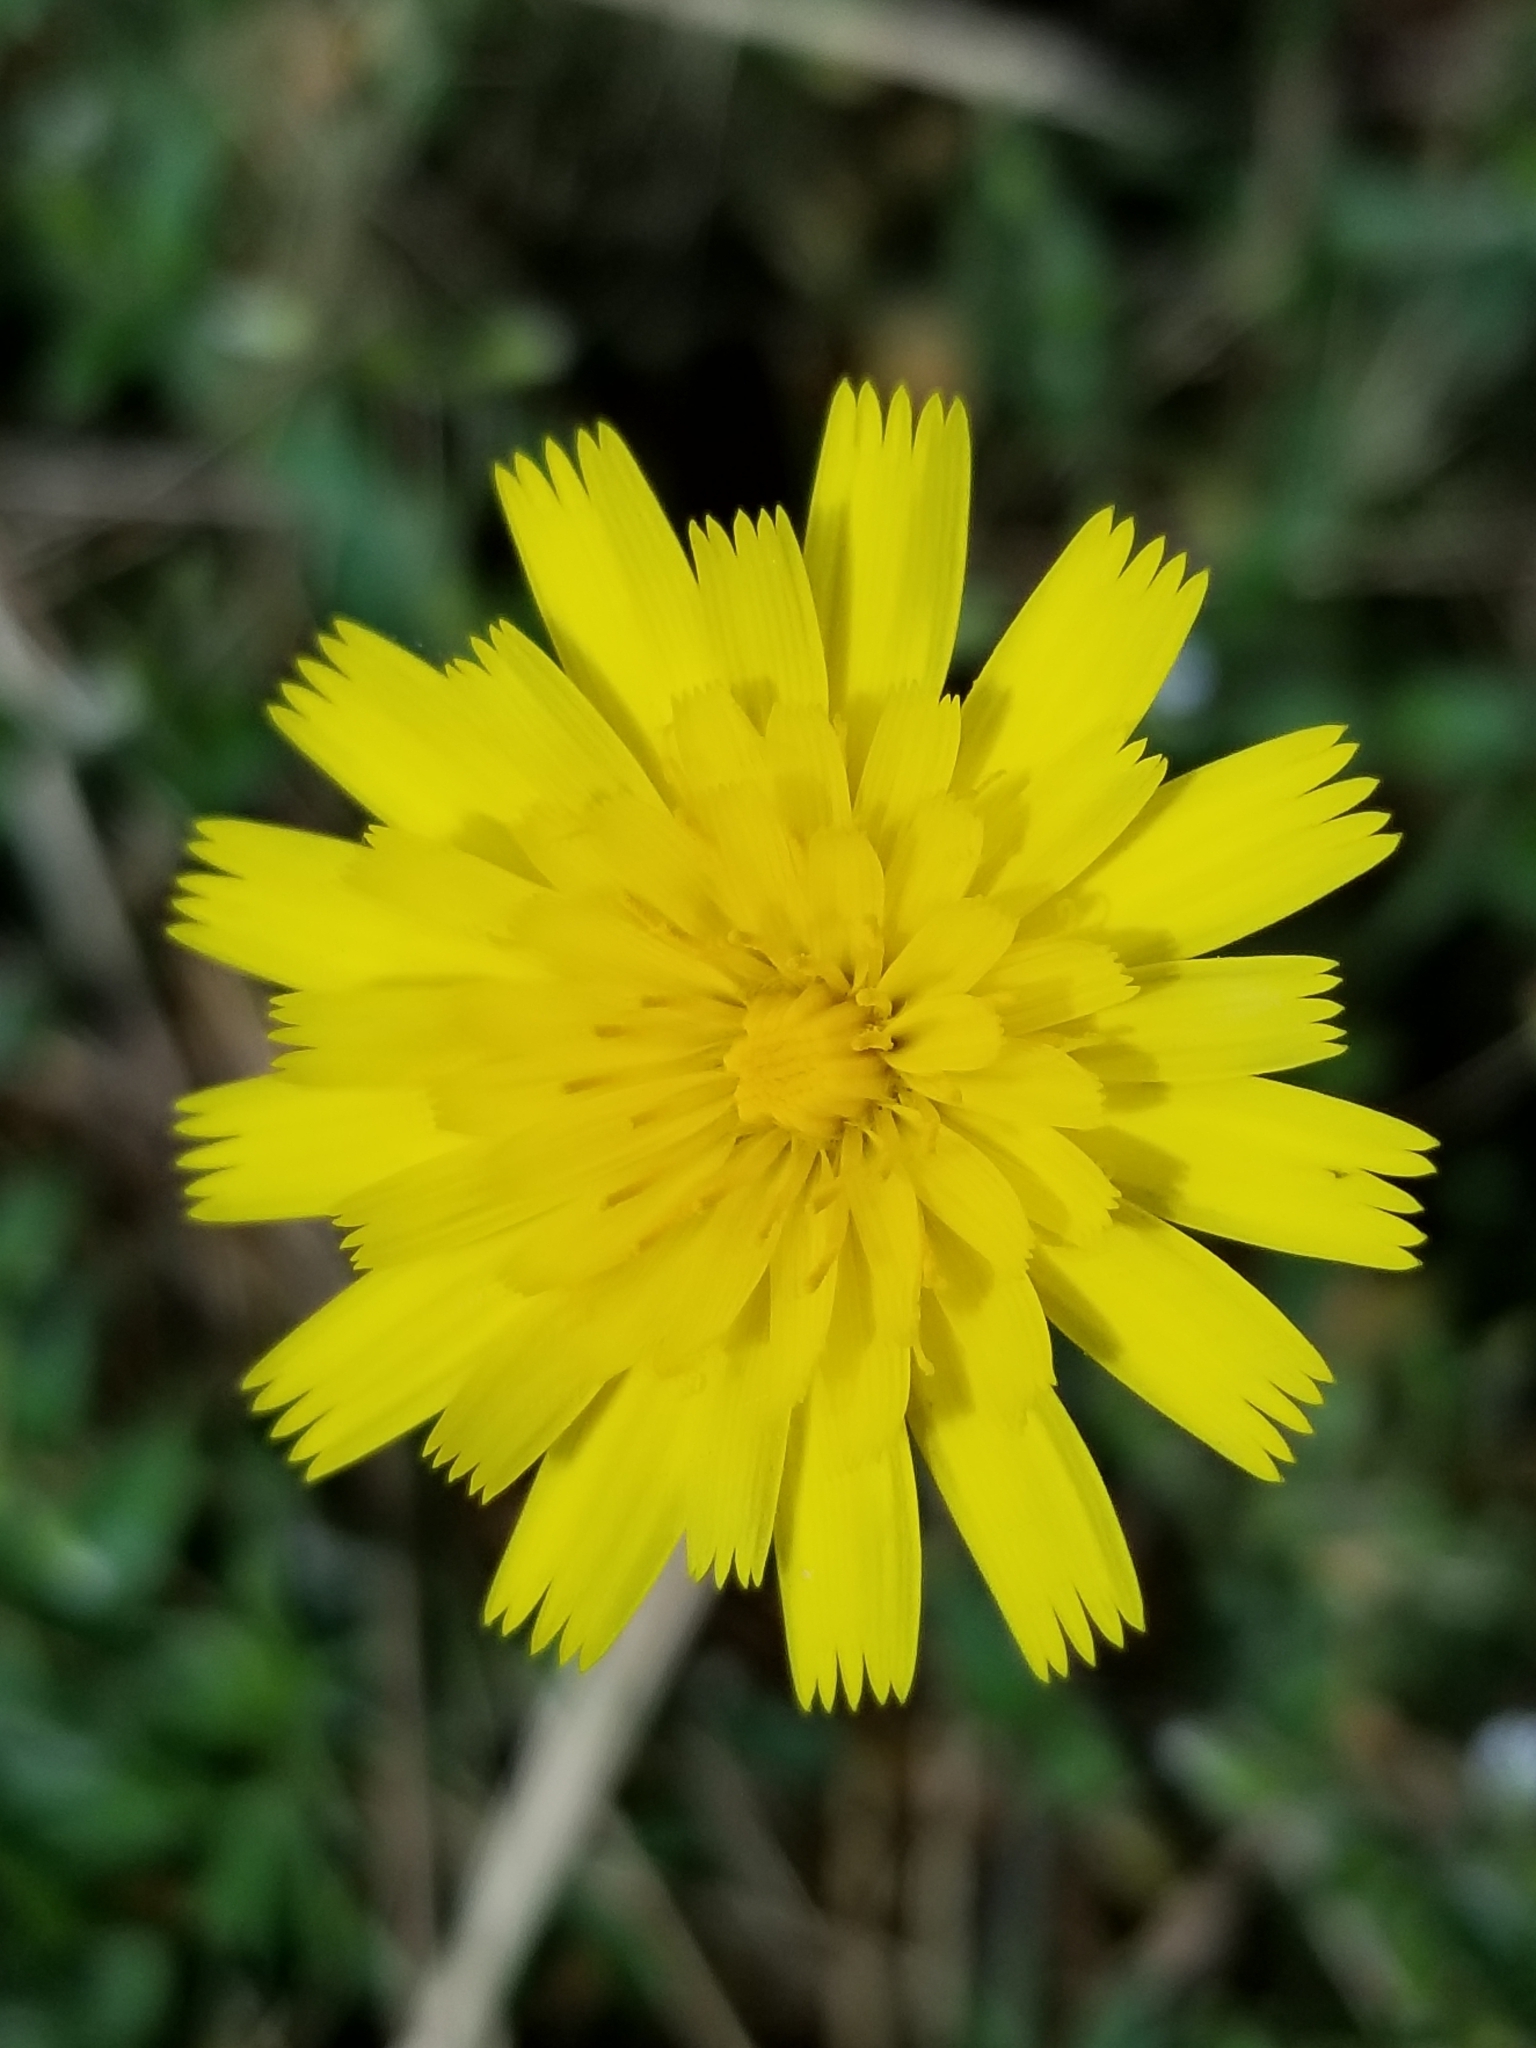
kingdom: Plantae
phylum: Tracheophyta
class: Magnoliopsida
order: Asterales
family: Asteraceae
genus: Hypochaeris
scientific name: Hypochaeris radicata
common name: Flatweed
